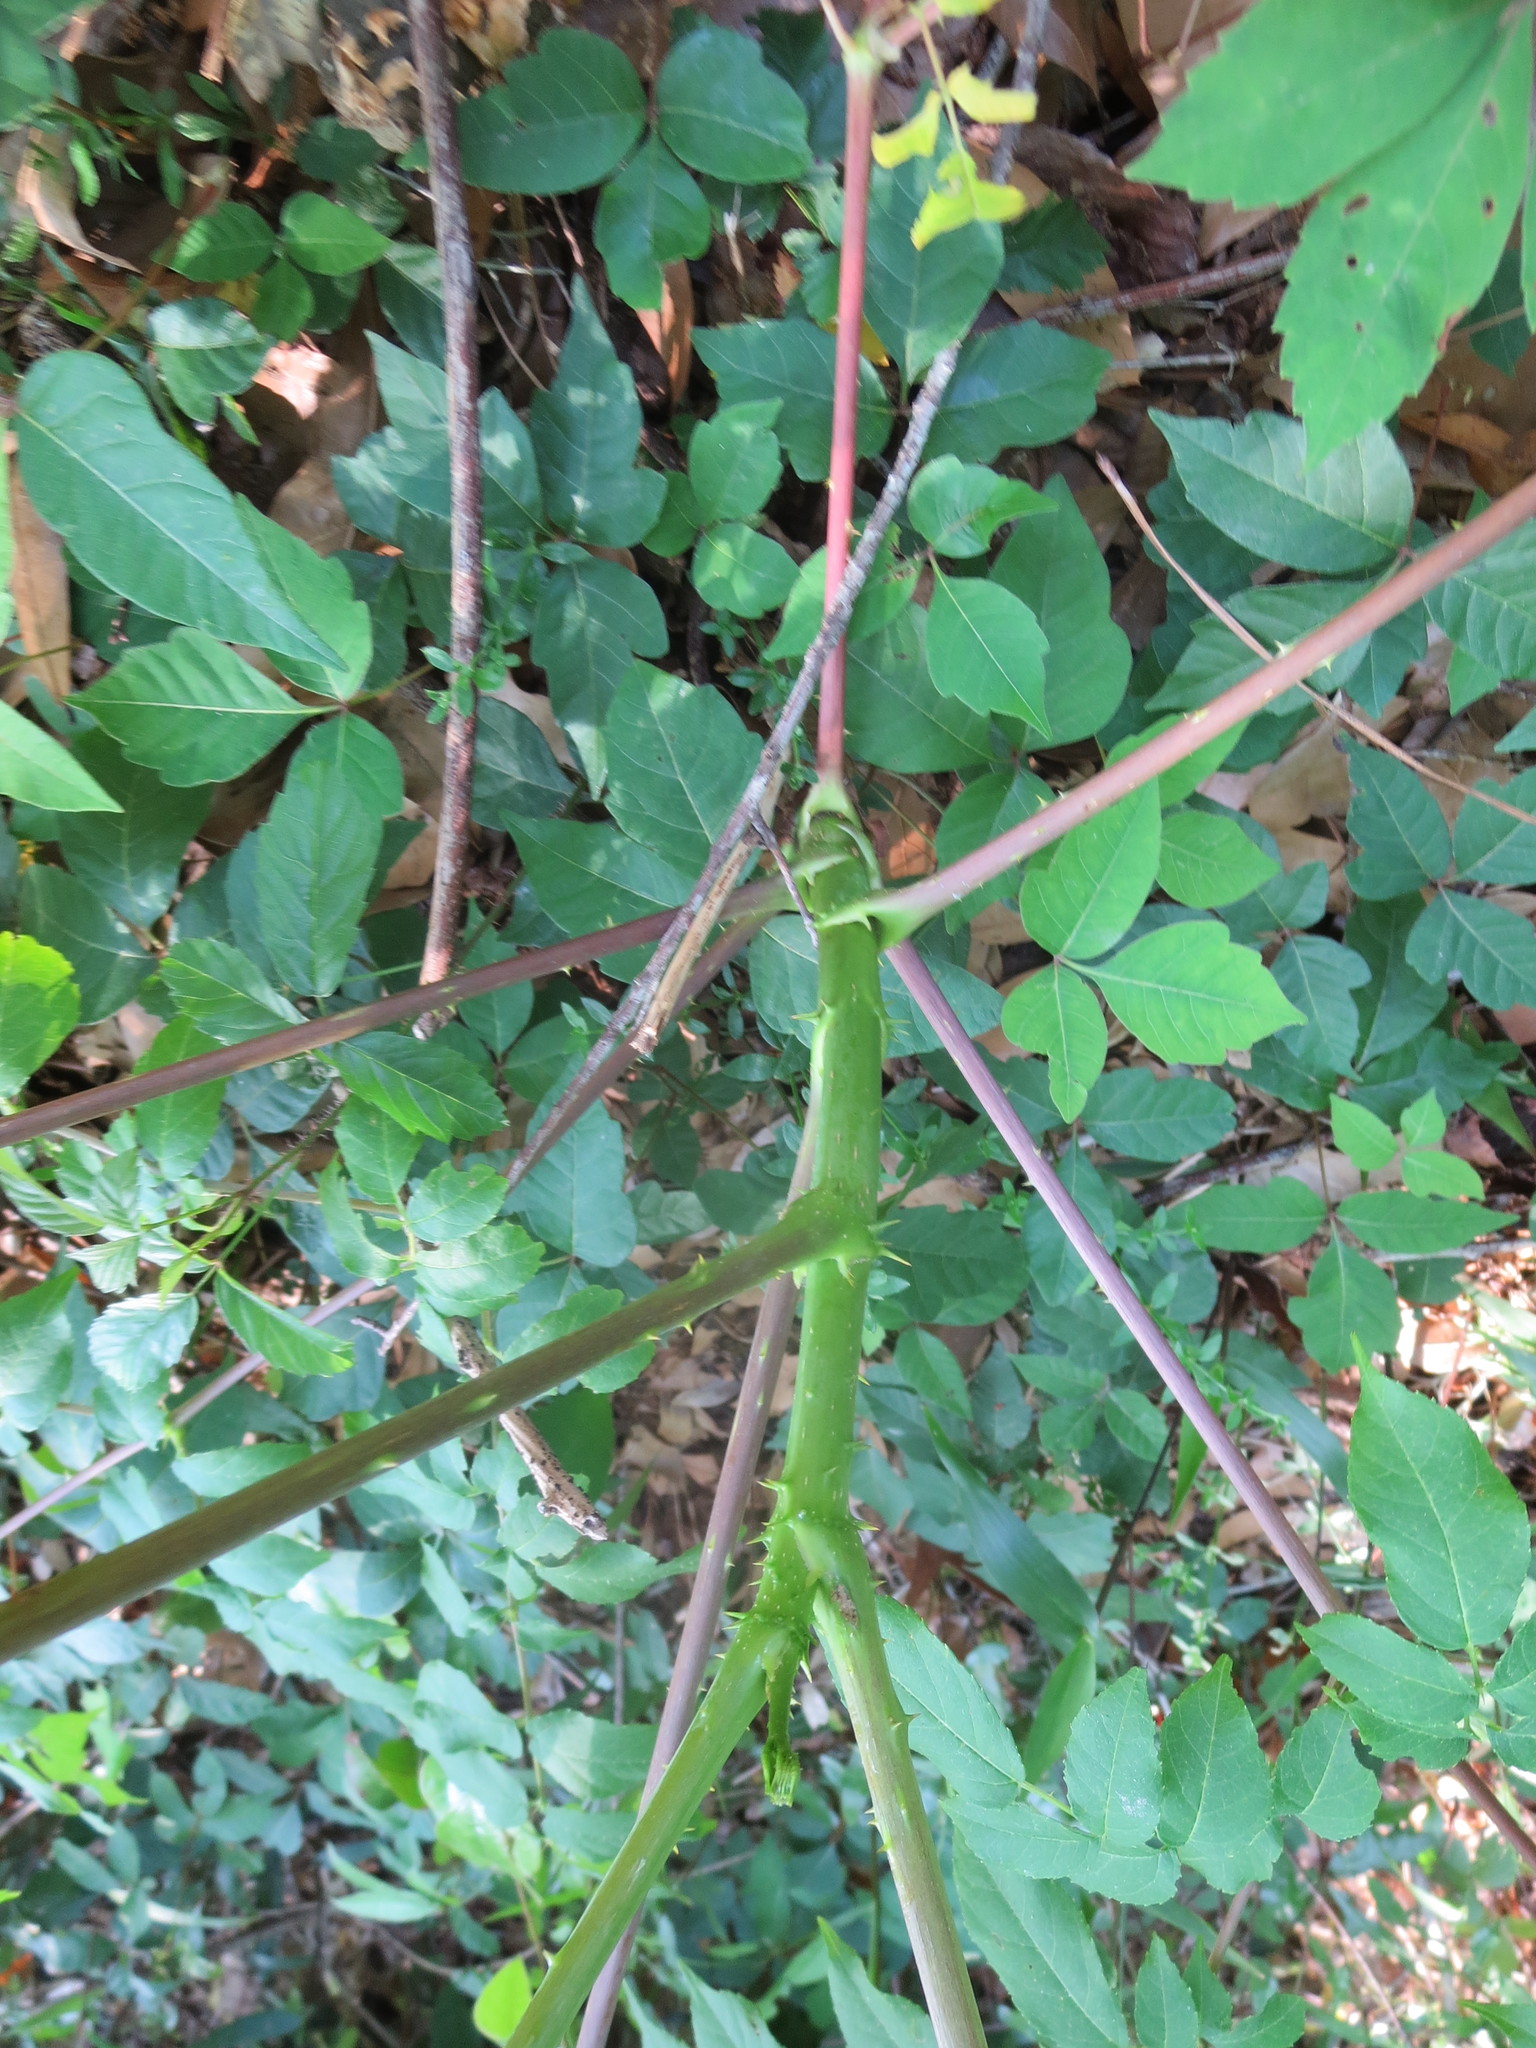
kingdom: Plantae
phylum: Tracheophyta
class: Magnoliopsida
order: Apiales
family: Araliaceae
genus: Aralia
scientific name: Aralia spinosa
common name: Hercules'-club
